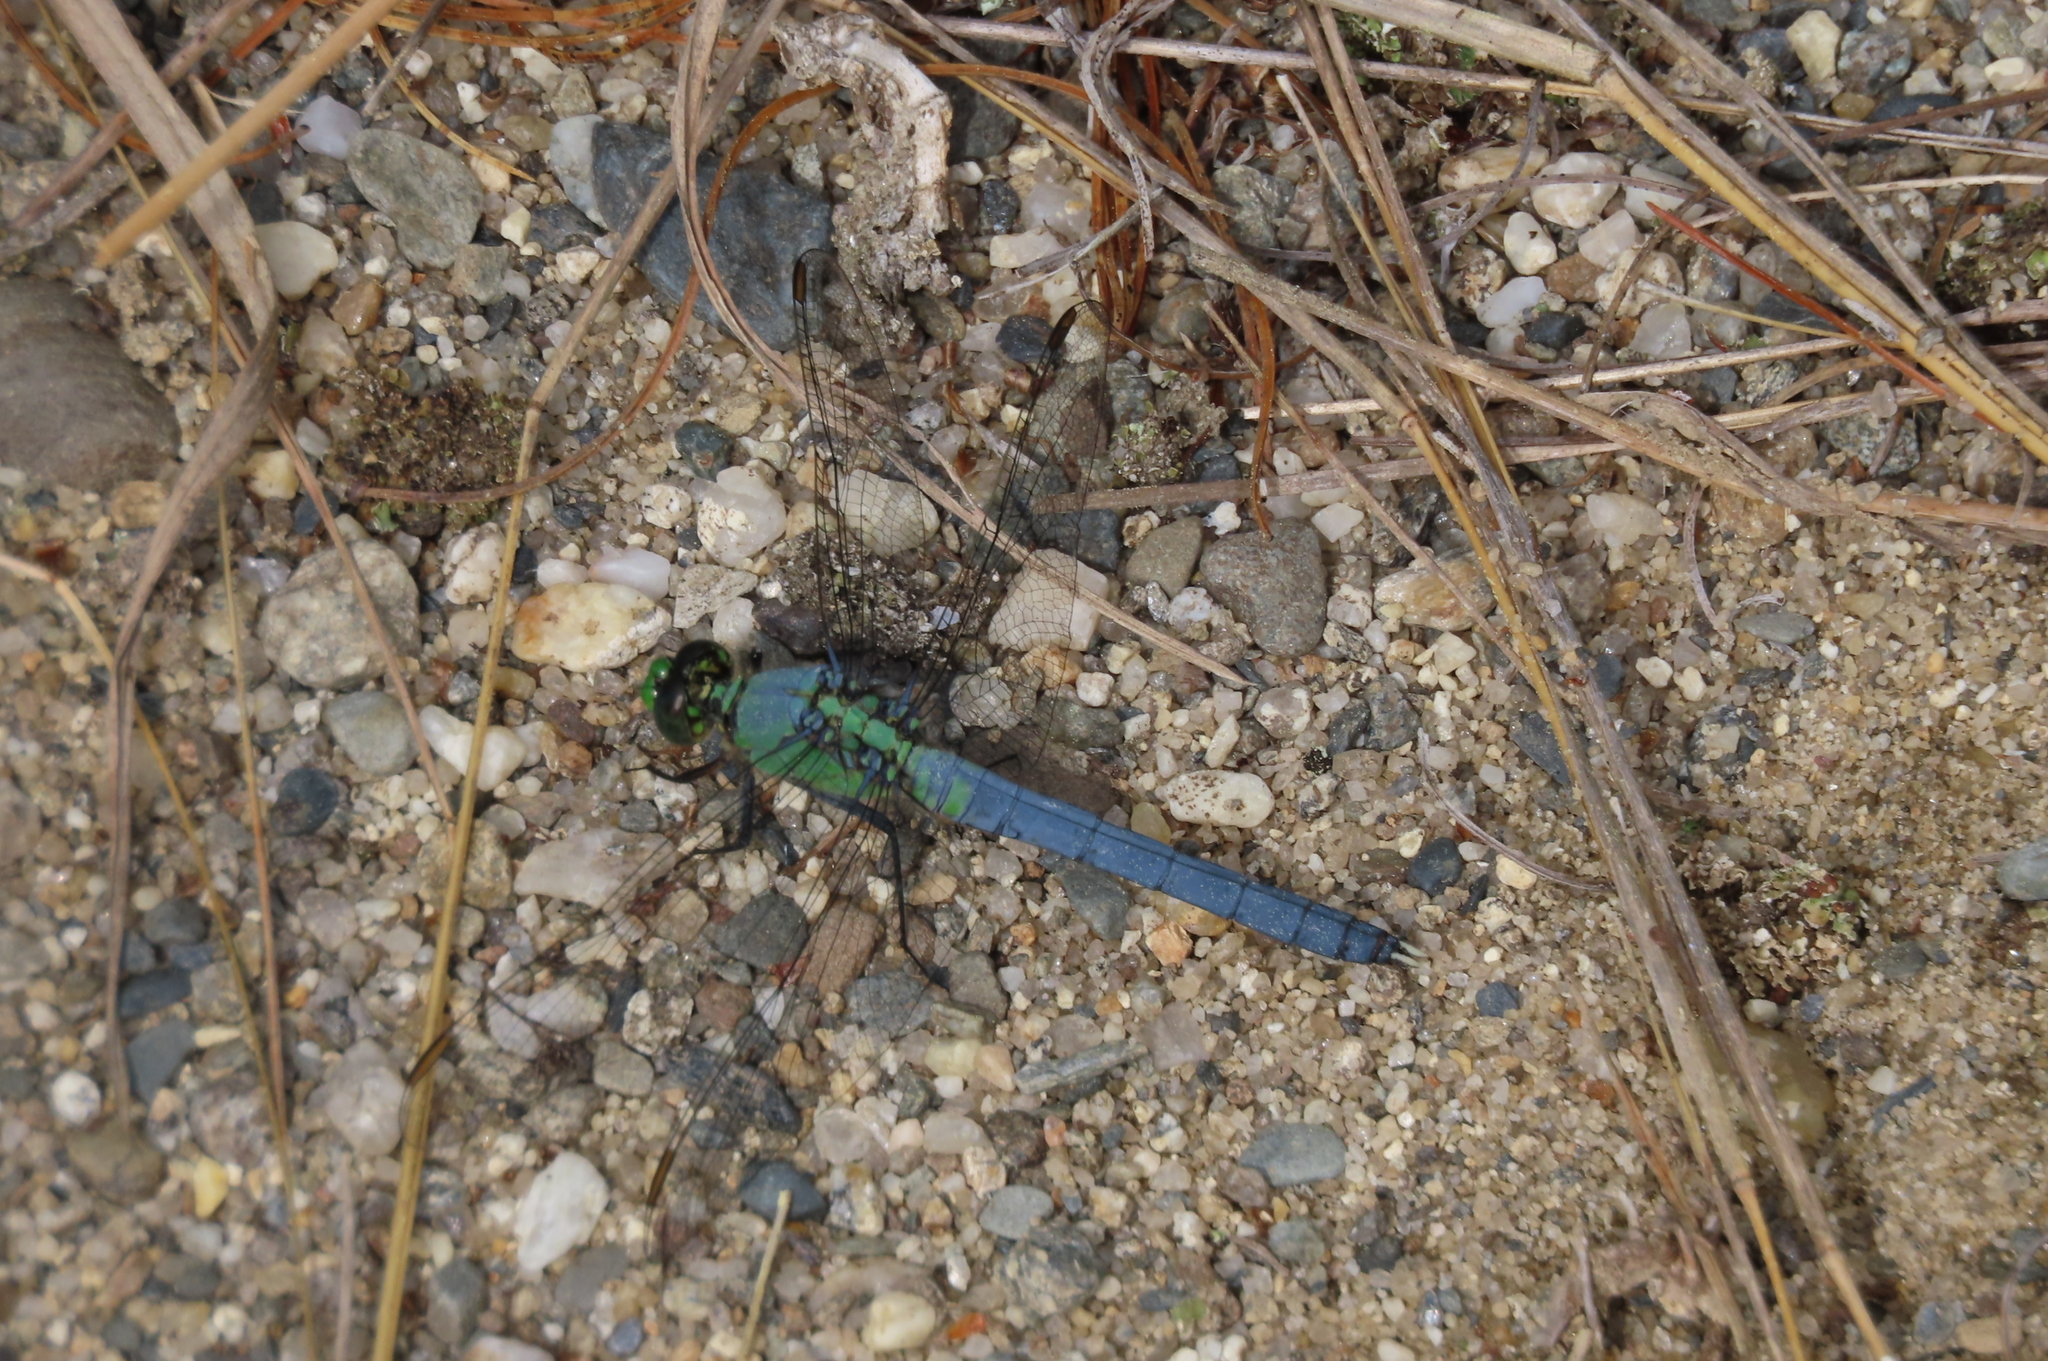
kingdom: Animalia
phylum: Arthropoda
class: Insecta
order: Odonata
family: Libellulidae
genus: Erythemis
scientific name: Erythemis simplicicollis
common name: Eastern pondhawk
